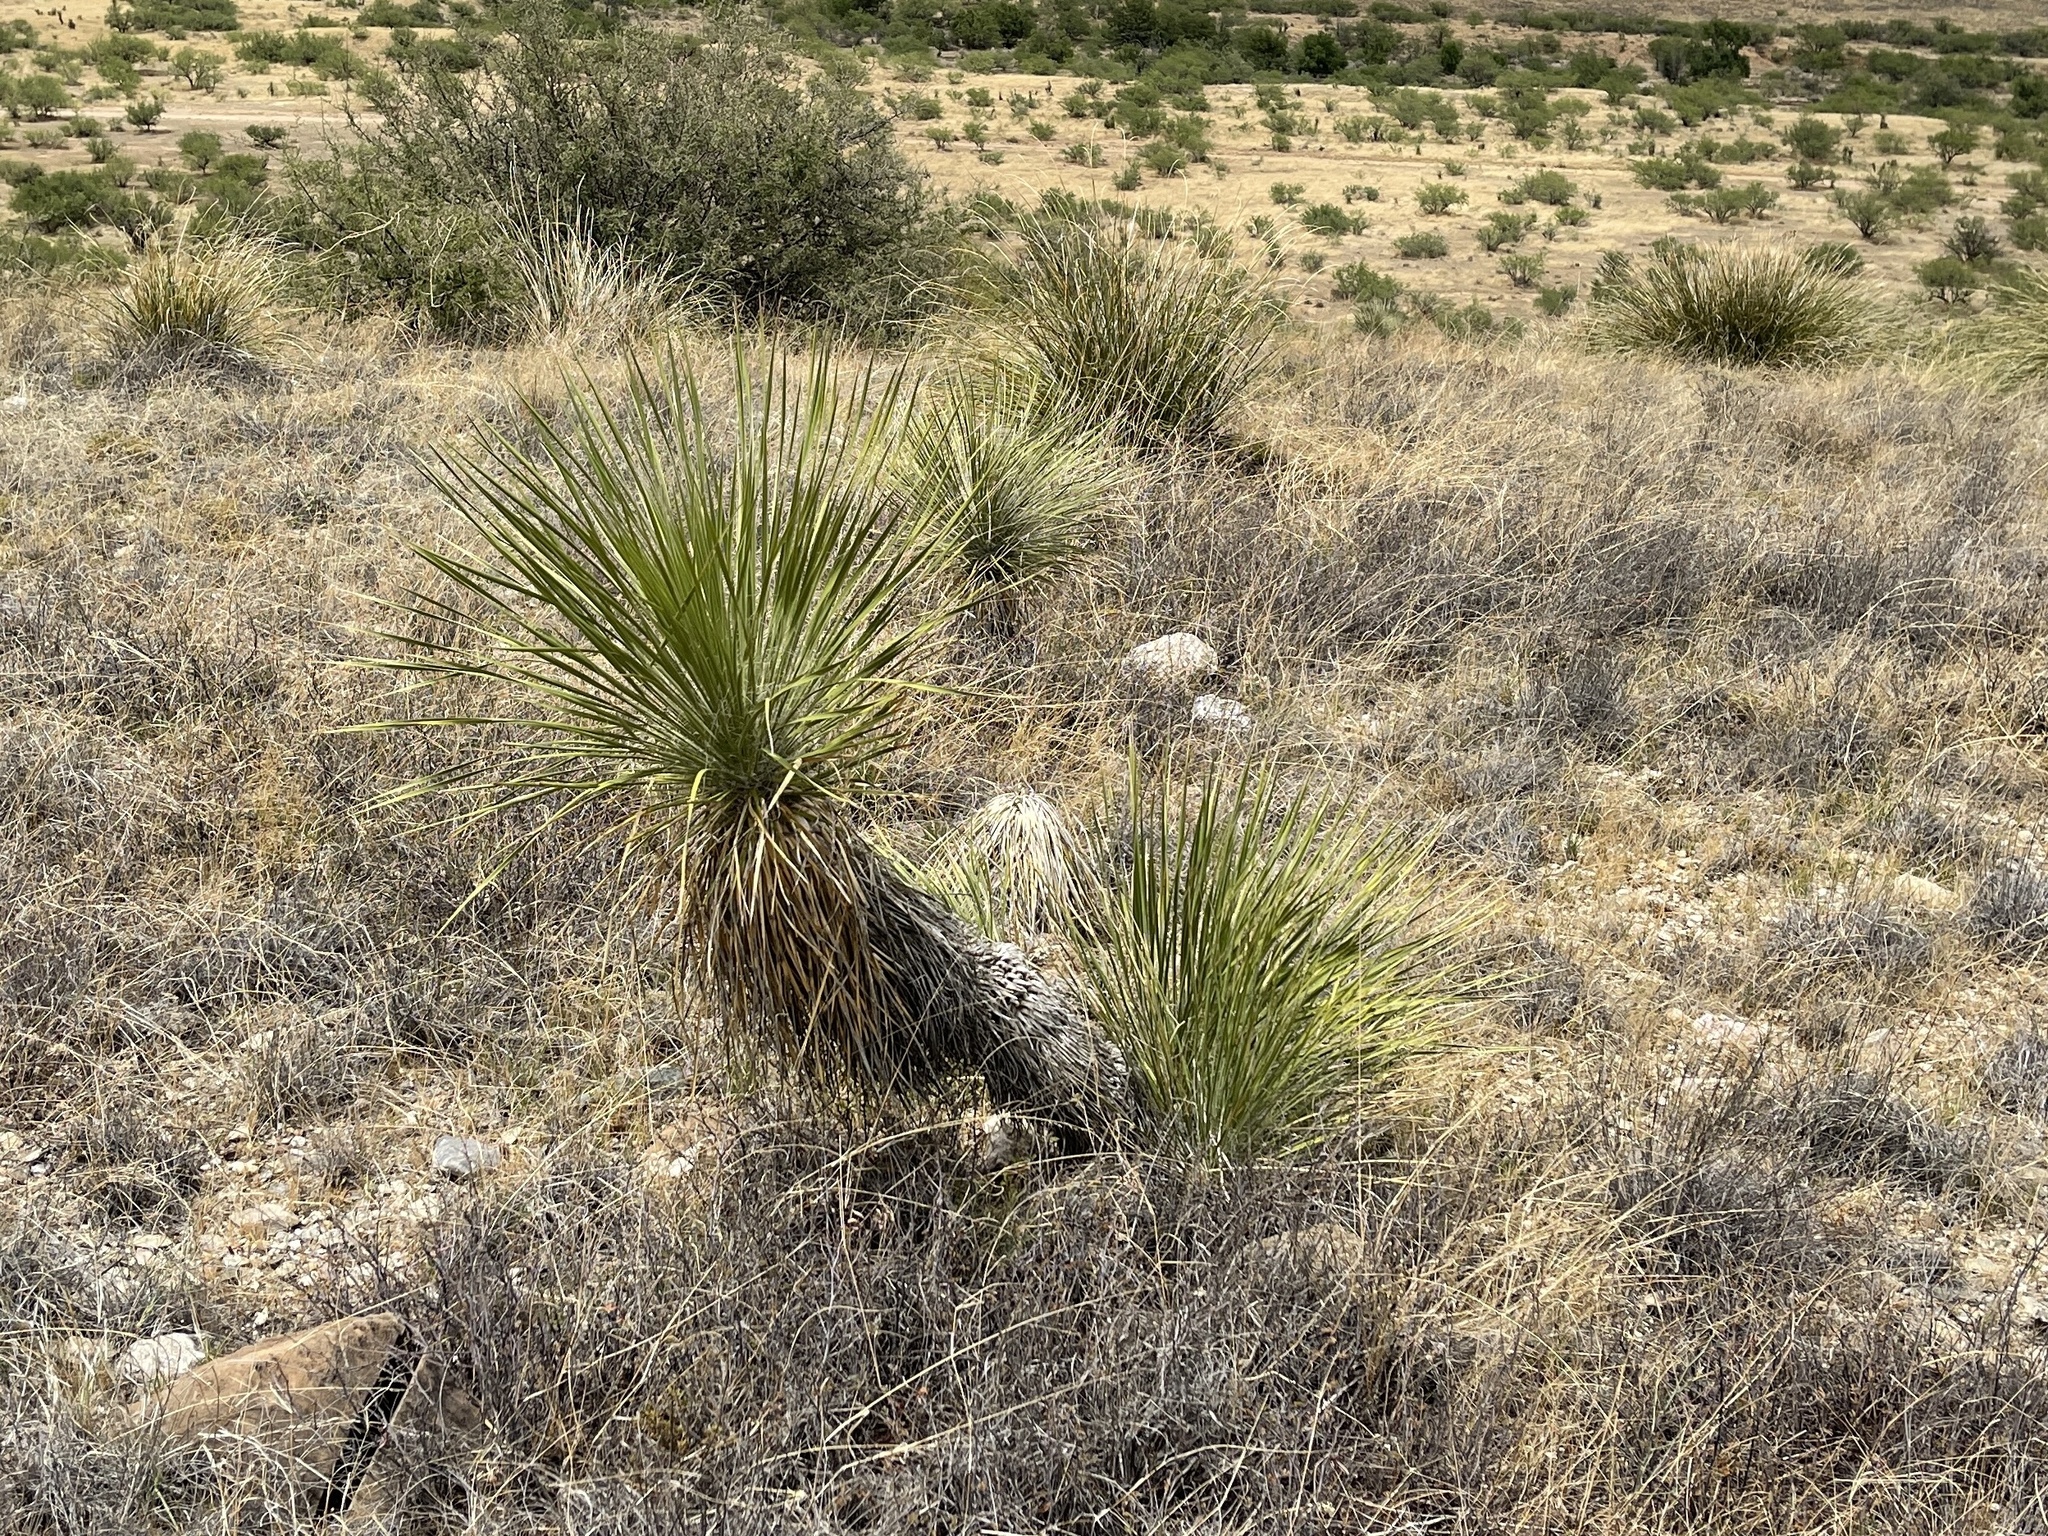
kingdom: Plantae
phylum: Tracheophyta
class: Liliopsida
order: Asparagales
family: Asparagaceae
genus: Yucca
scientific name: Yucca elata
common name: Palmella
